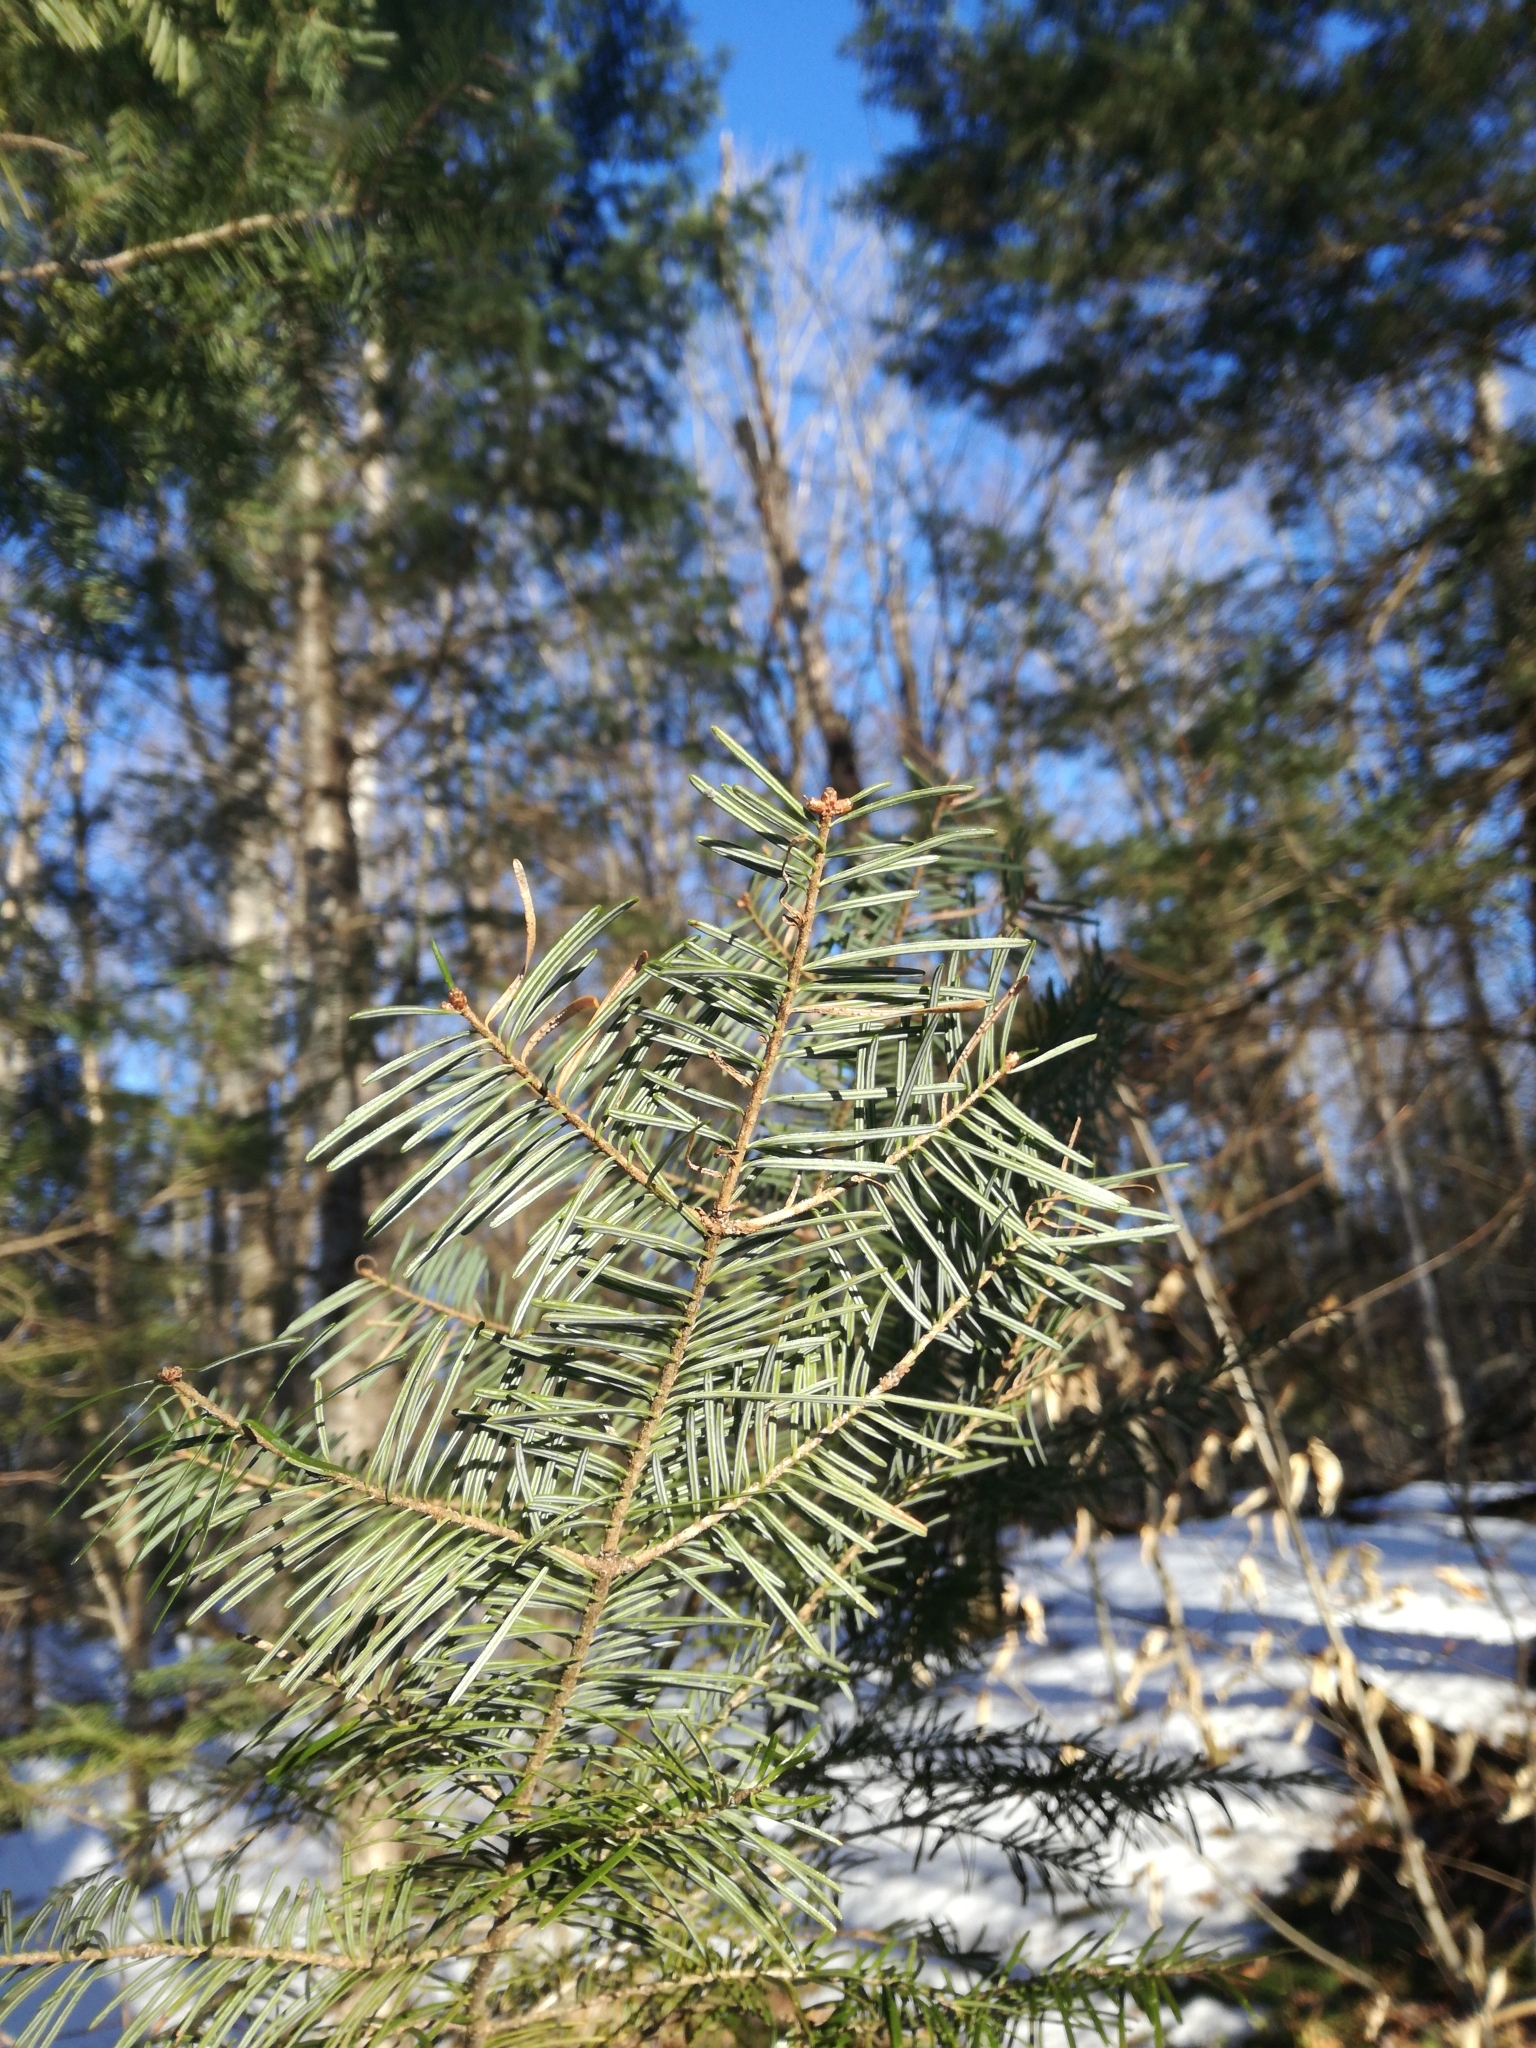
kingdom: Plantae
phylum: Tracheophyta
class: Pinopsida
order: Pinales
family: Pinaceae
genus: Abies
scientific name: Abies balsamea
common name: Balsam fir
